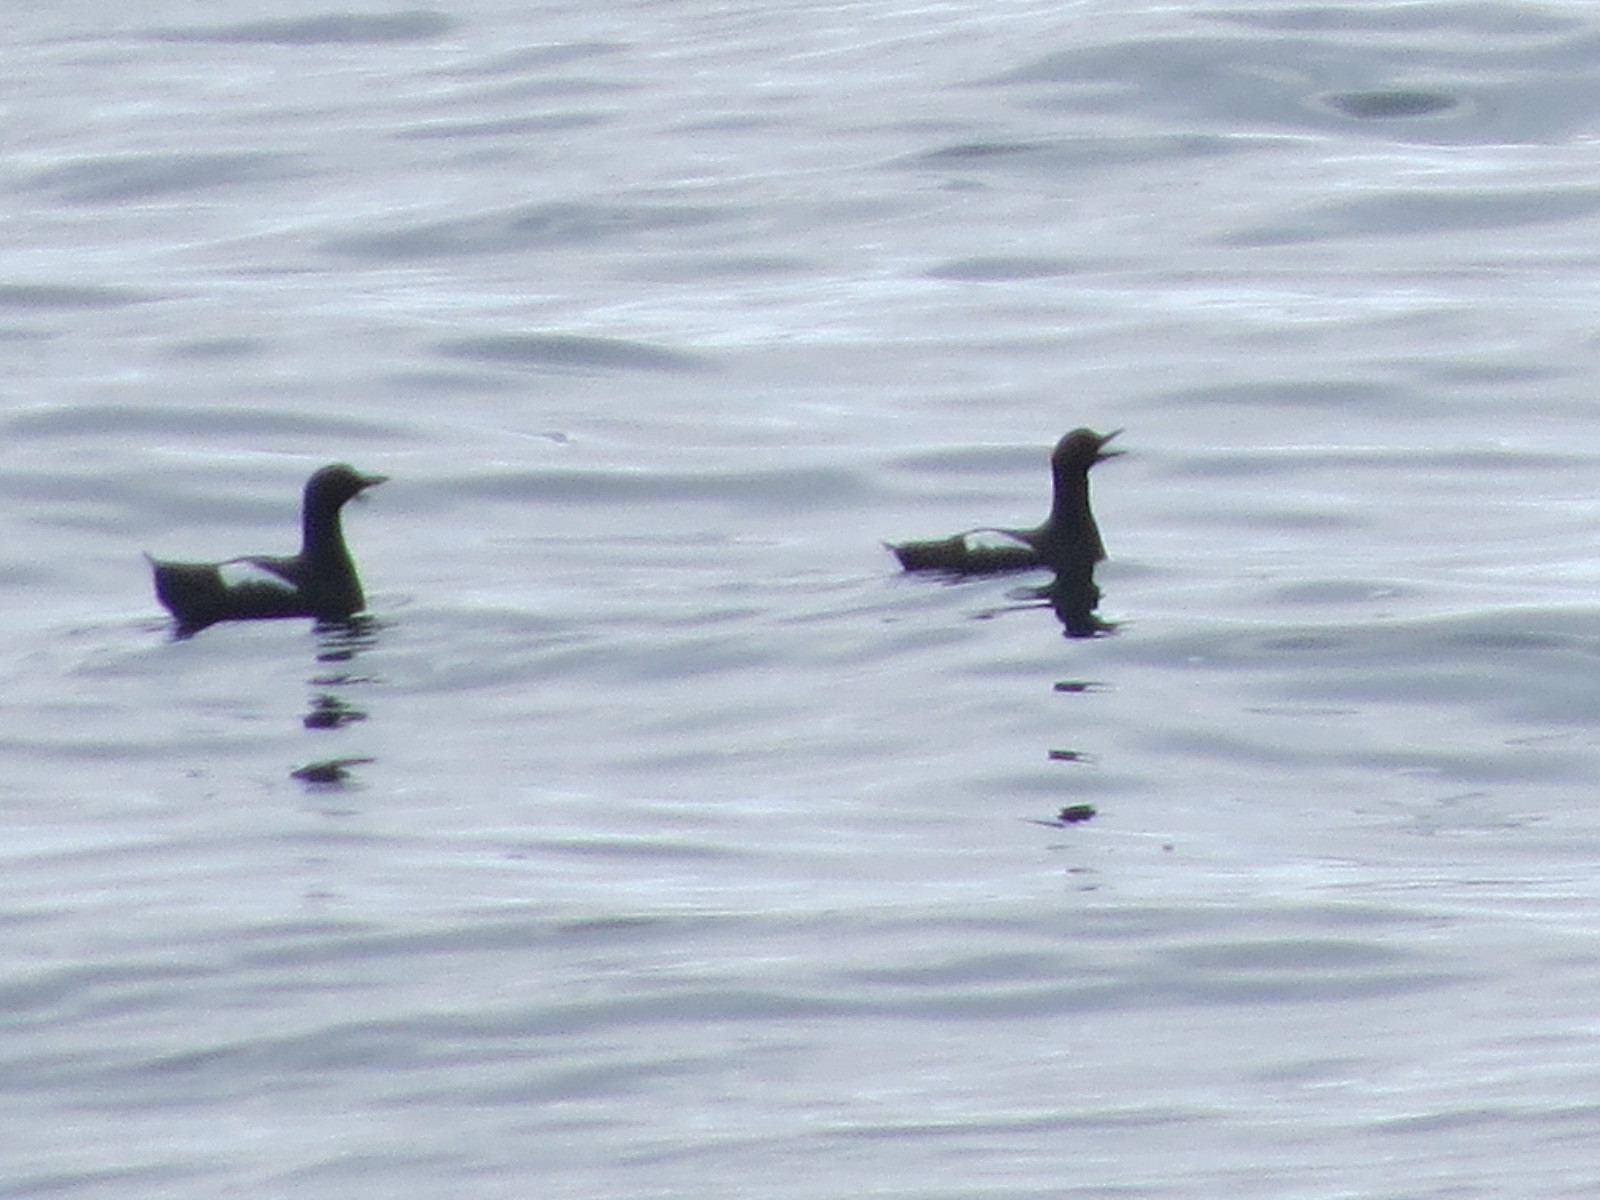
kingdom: Animalia
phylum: Chordata
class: Aves
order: Charadriiformes
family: Alcidae
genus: Cepphus
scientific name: Cepphus columba
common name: Pigeon guillemot
